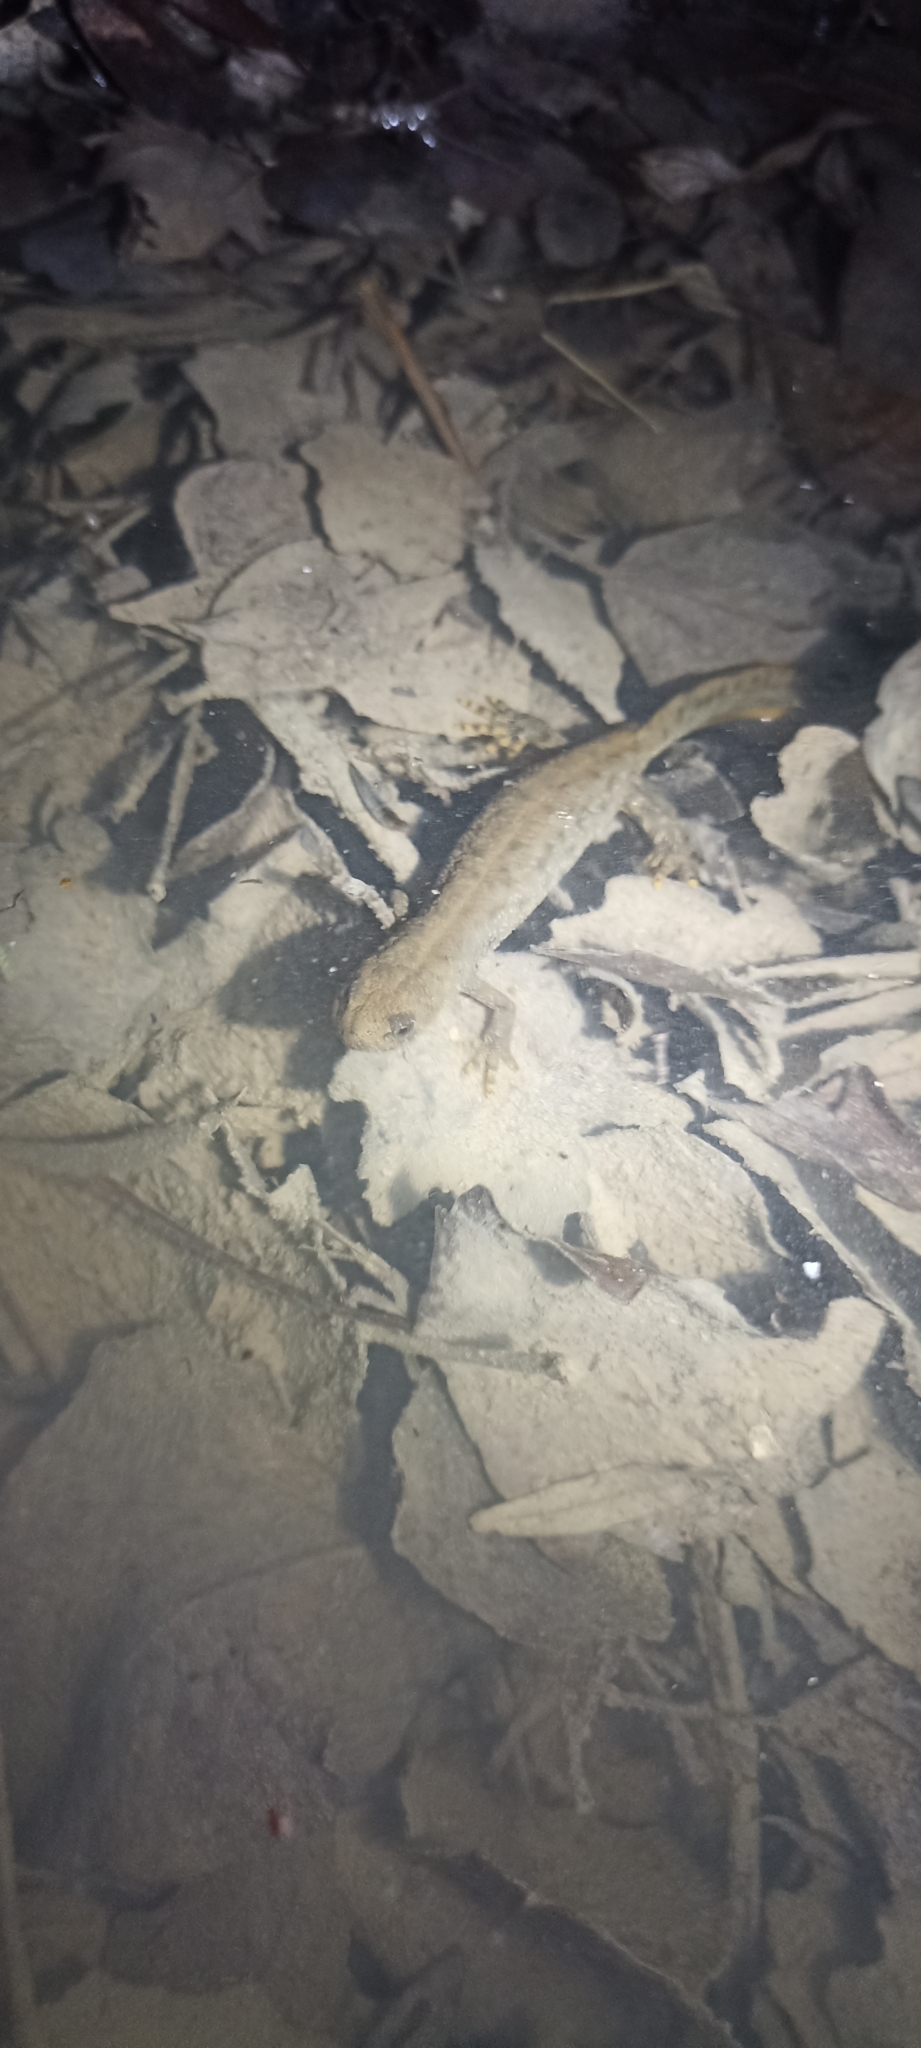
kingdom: Animalia
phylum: Chordata
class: Amphibia
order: Caudata
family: Salamandridae
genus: Triturus
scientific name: Triturus cristatus
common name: Crested newt
